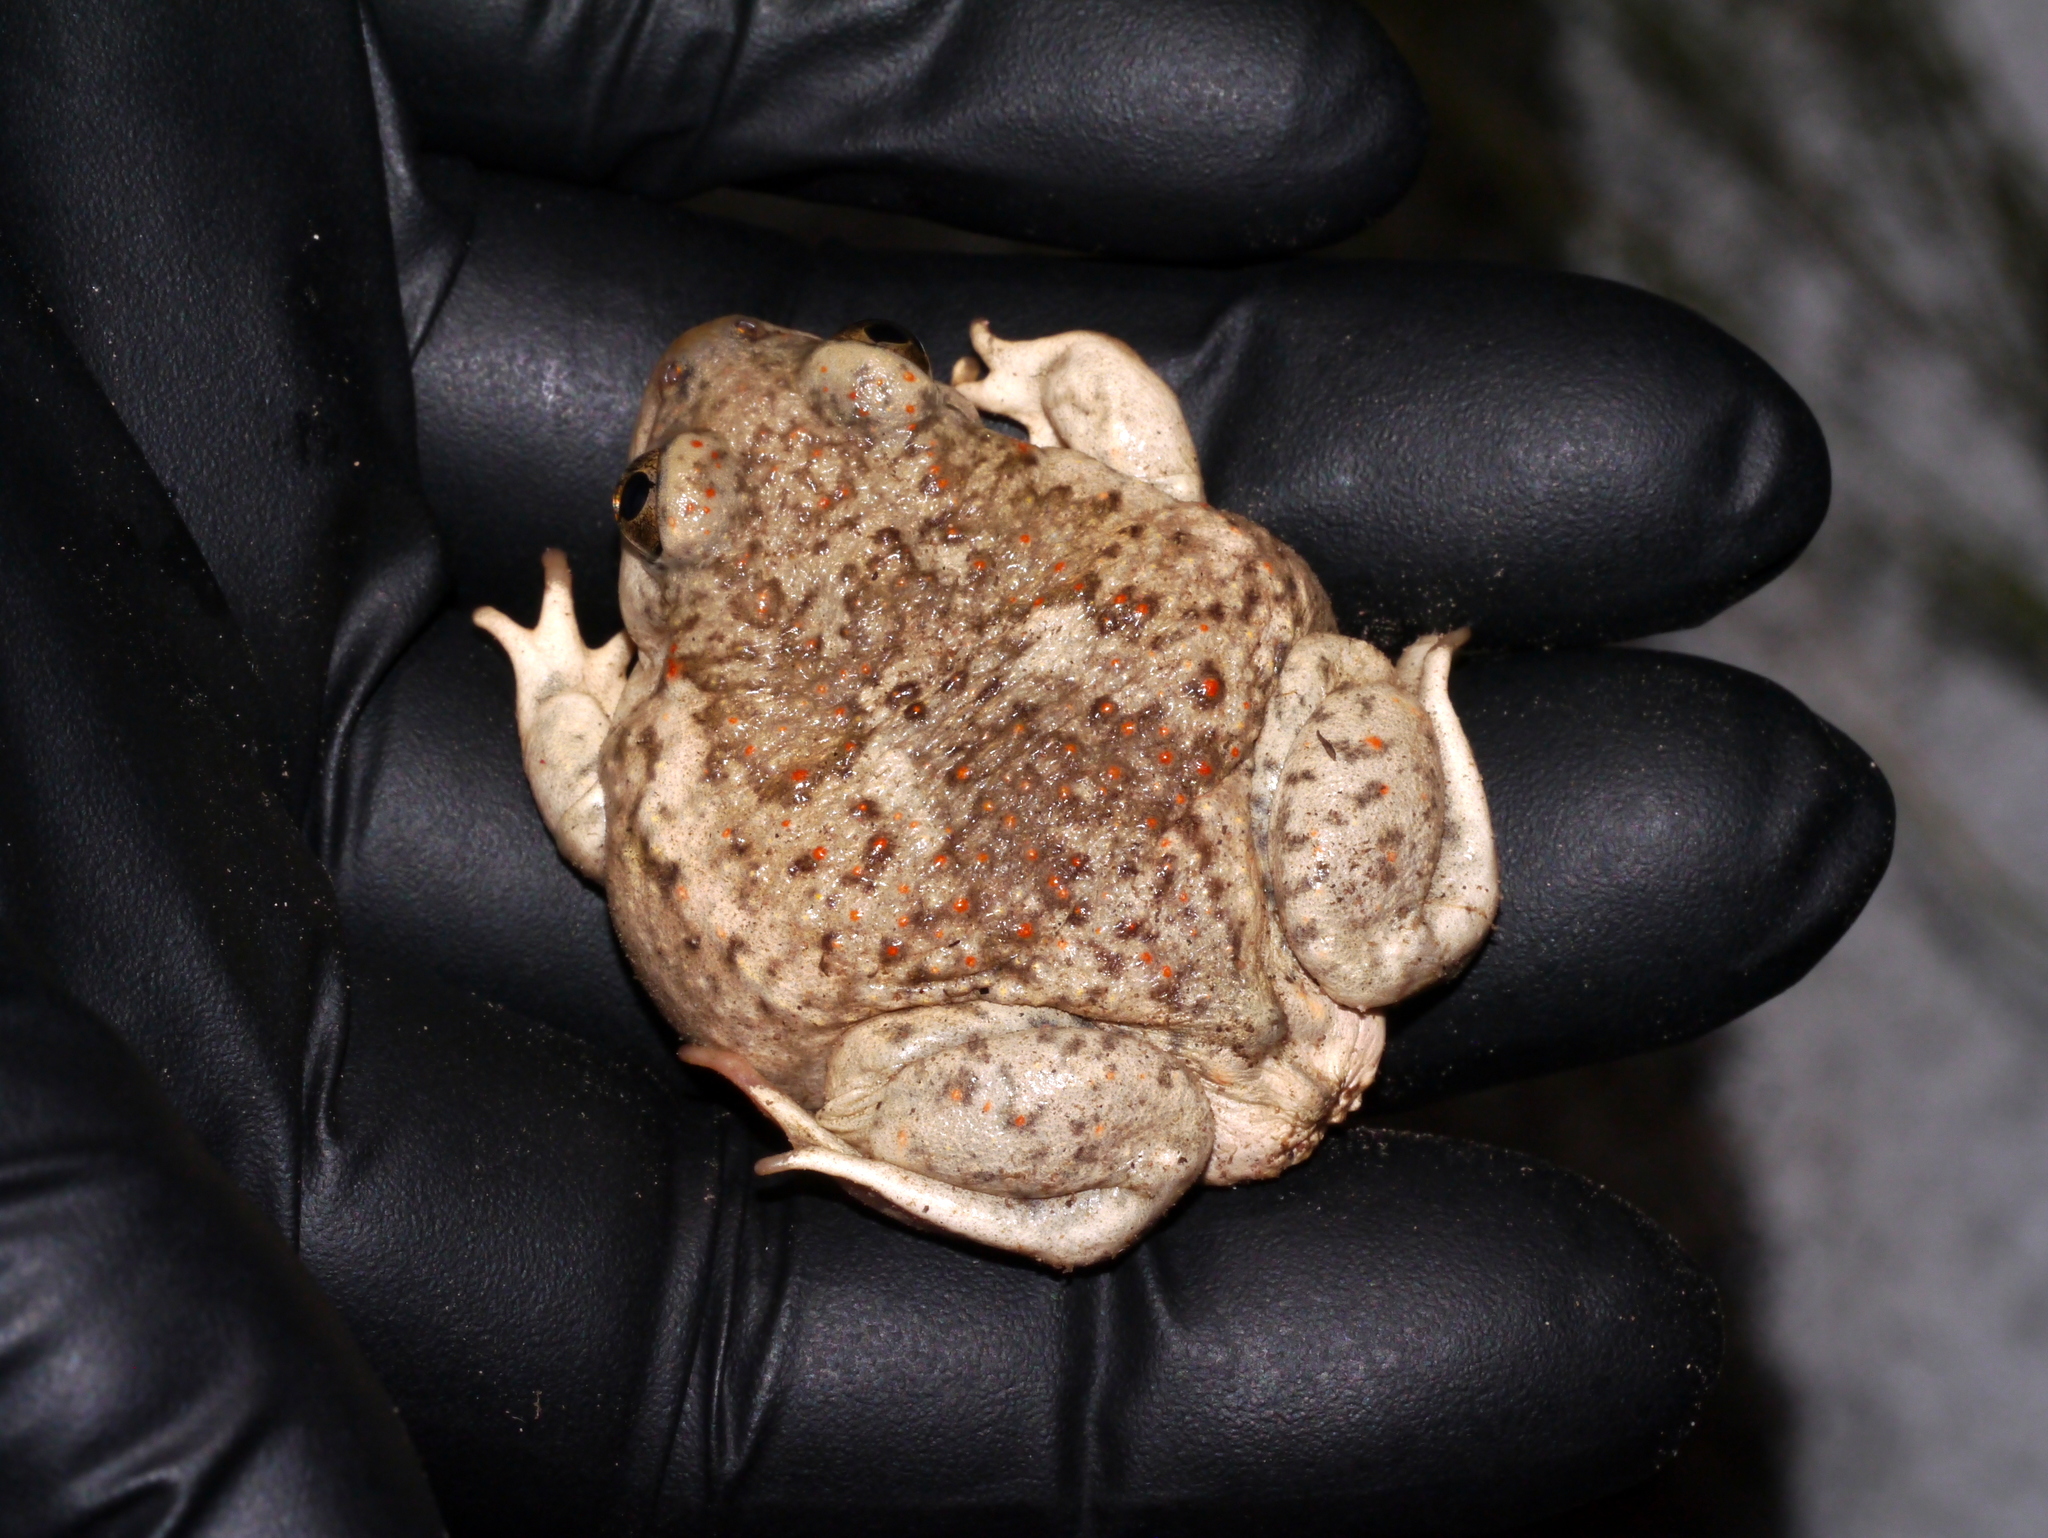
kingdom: Animalia
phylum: Chordata
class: Amphibia
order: Anura
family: Scaphiopodidae
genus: Spea
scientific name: Spea multiplicata
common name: Mexican spadefoot
